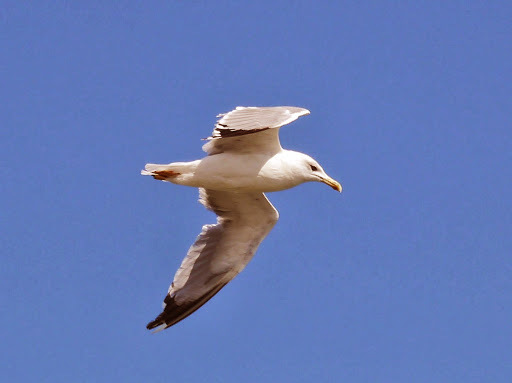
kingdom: Animalia
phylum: Chordata
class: Aves
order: Charadriiformes
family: Laridae
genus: Larus
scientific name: Larus michahellis
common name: Yellow-legged gull
